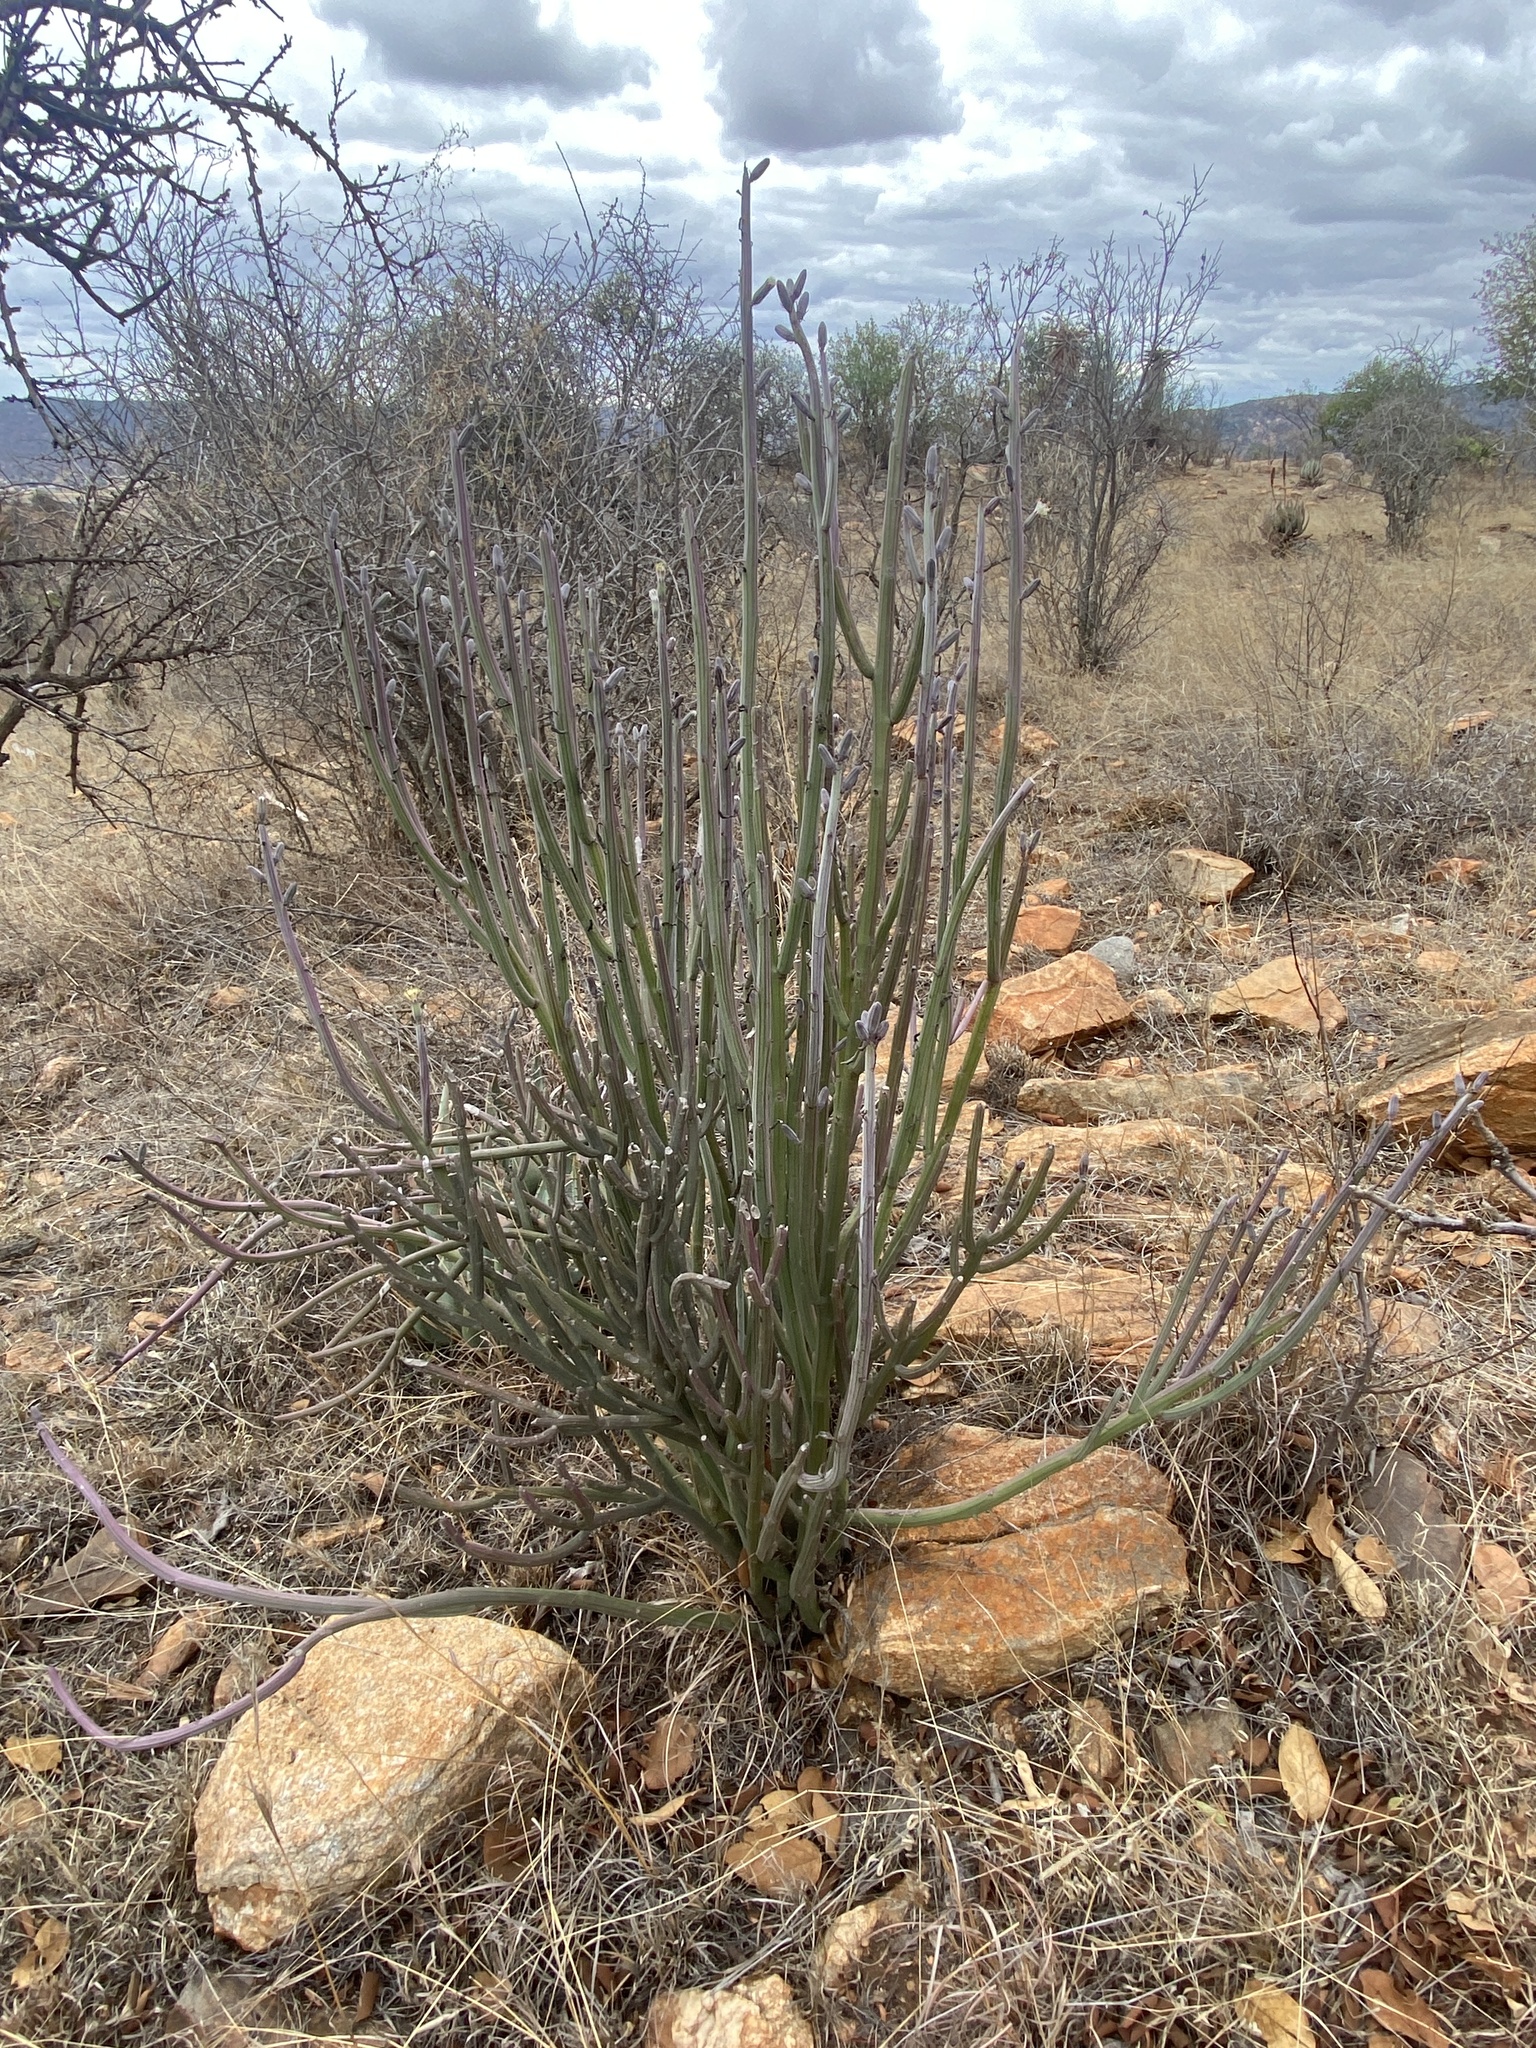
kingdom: Plantae
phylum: Tracheophyta
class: Magnoliopsida
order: Asterales
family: Asteraceae
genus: Curio
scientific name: Curio avasimontanus
